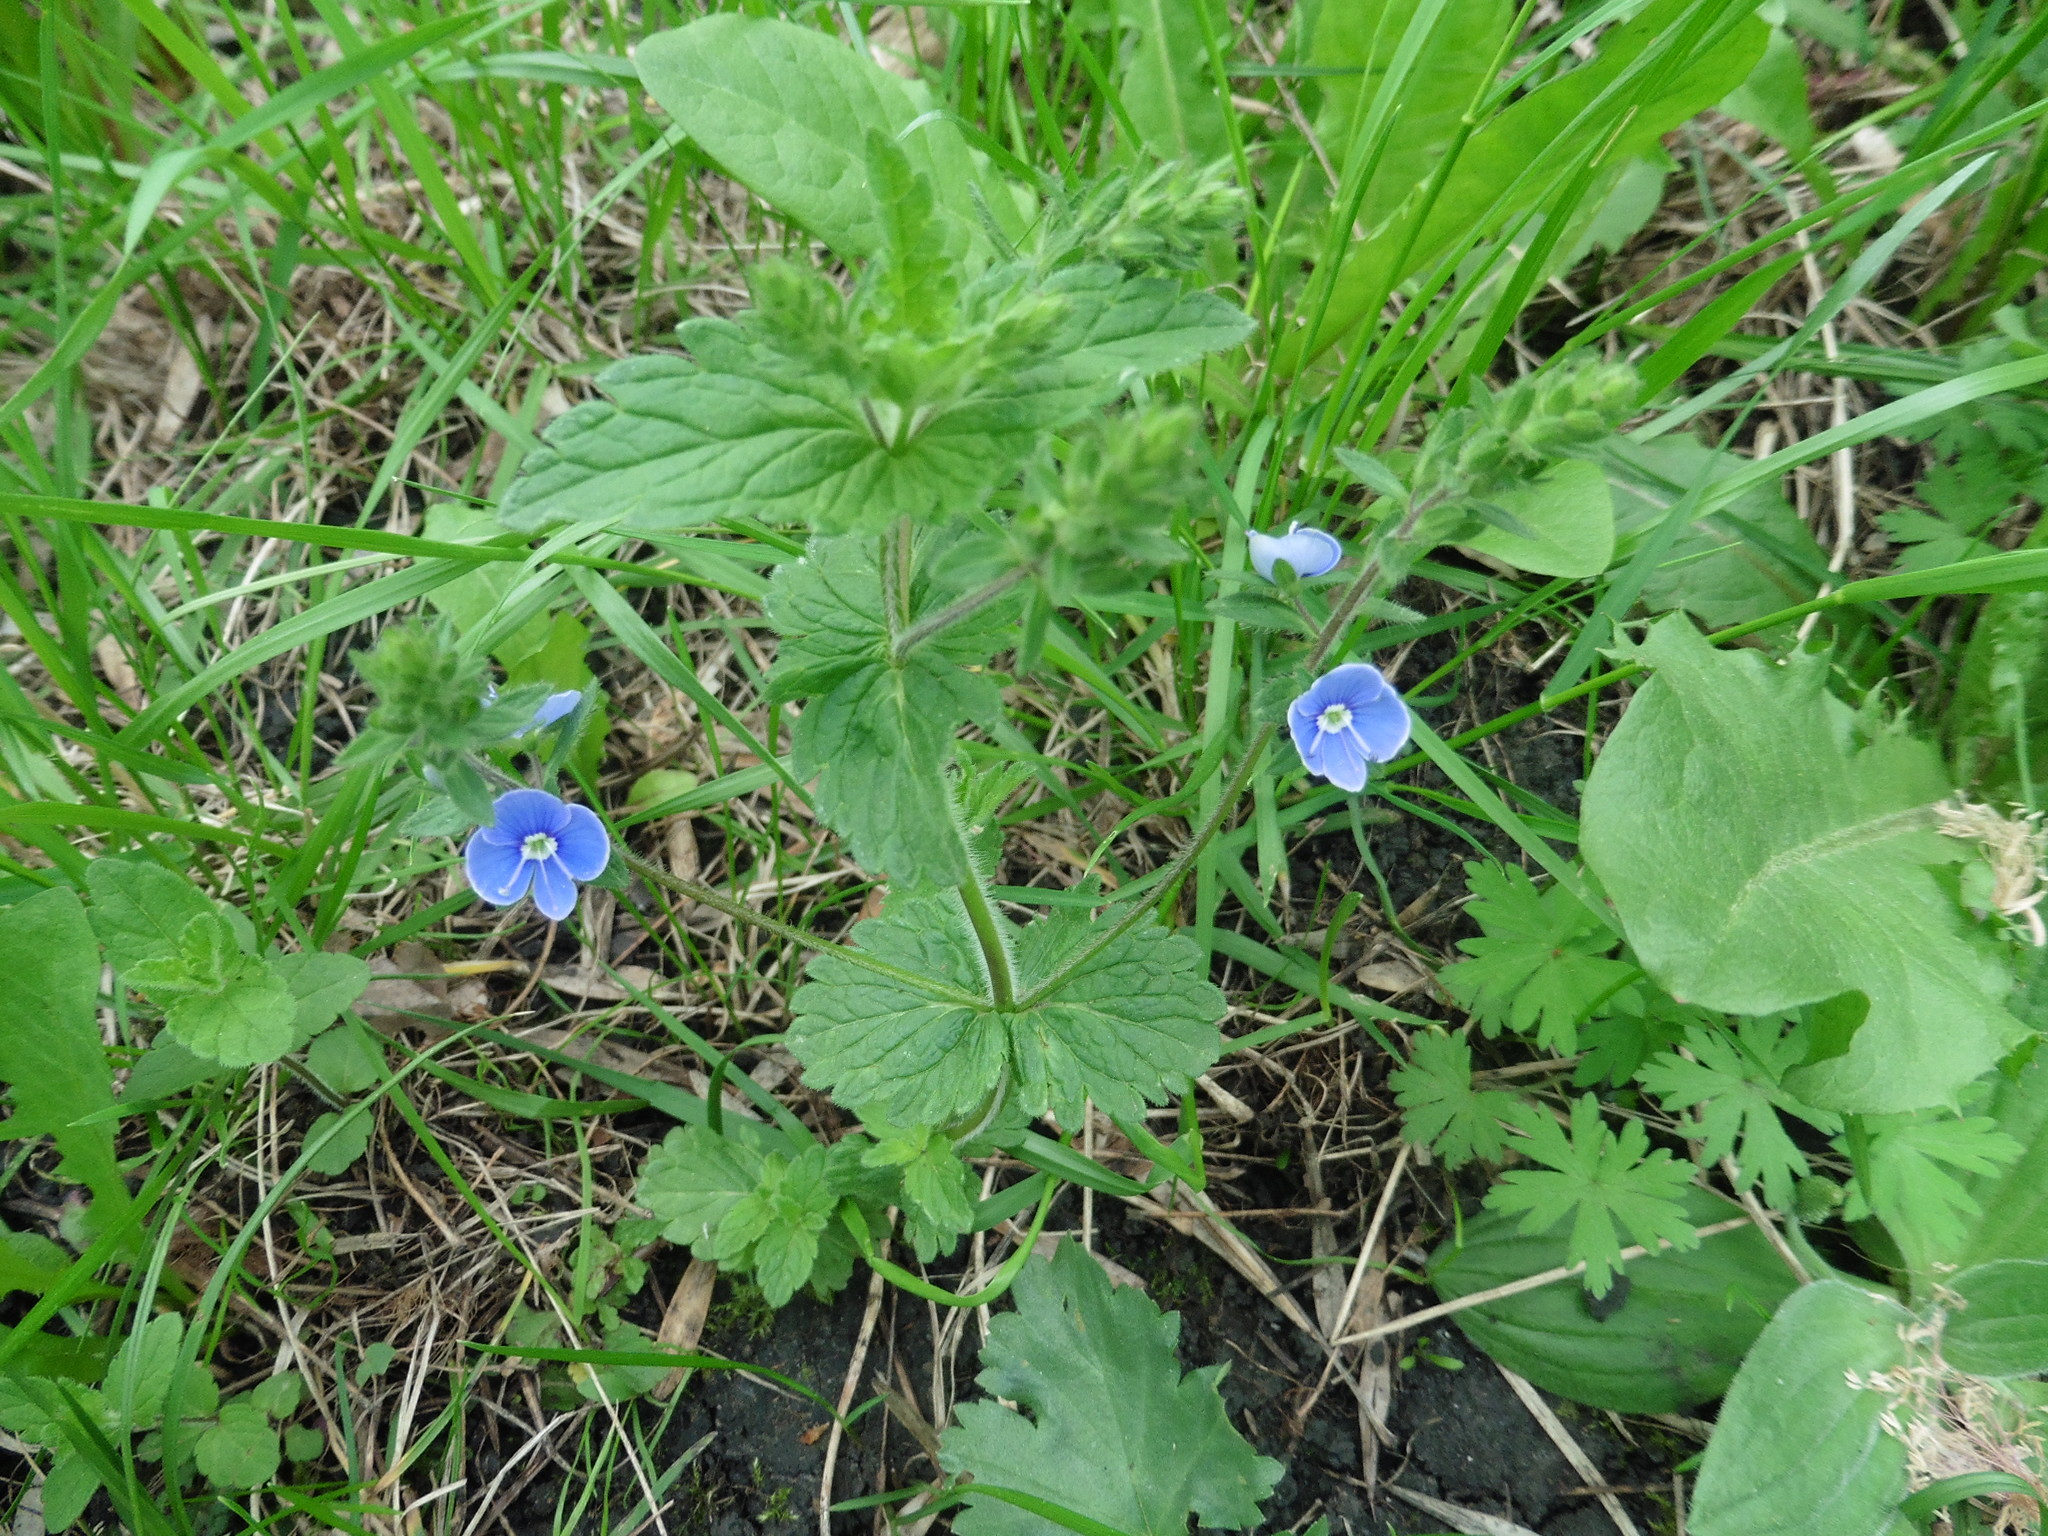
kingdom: Plantae
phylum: Tracheophyta
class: Magnoliopsida
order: Lamiales
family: Plantaginaceae
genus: Veronica
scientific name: Veronica chamaedrys
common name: Germander speedwell
